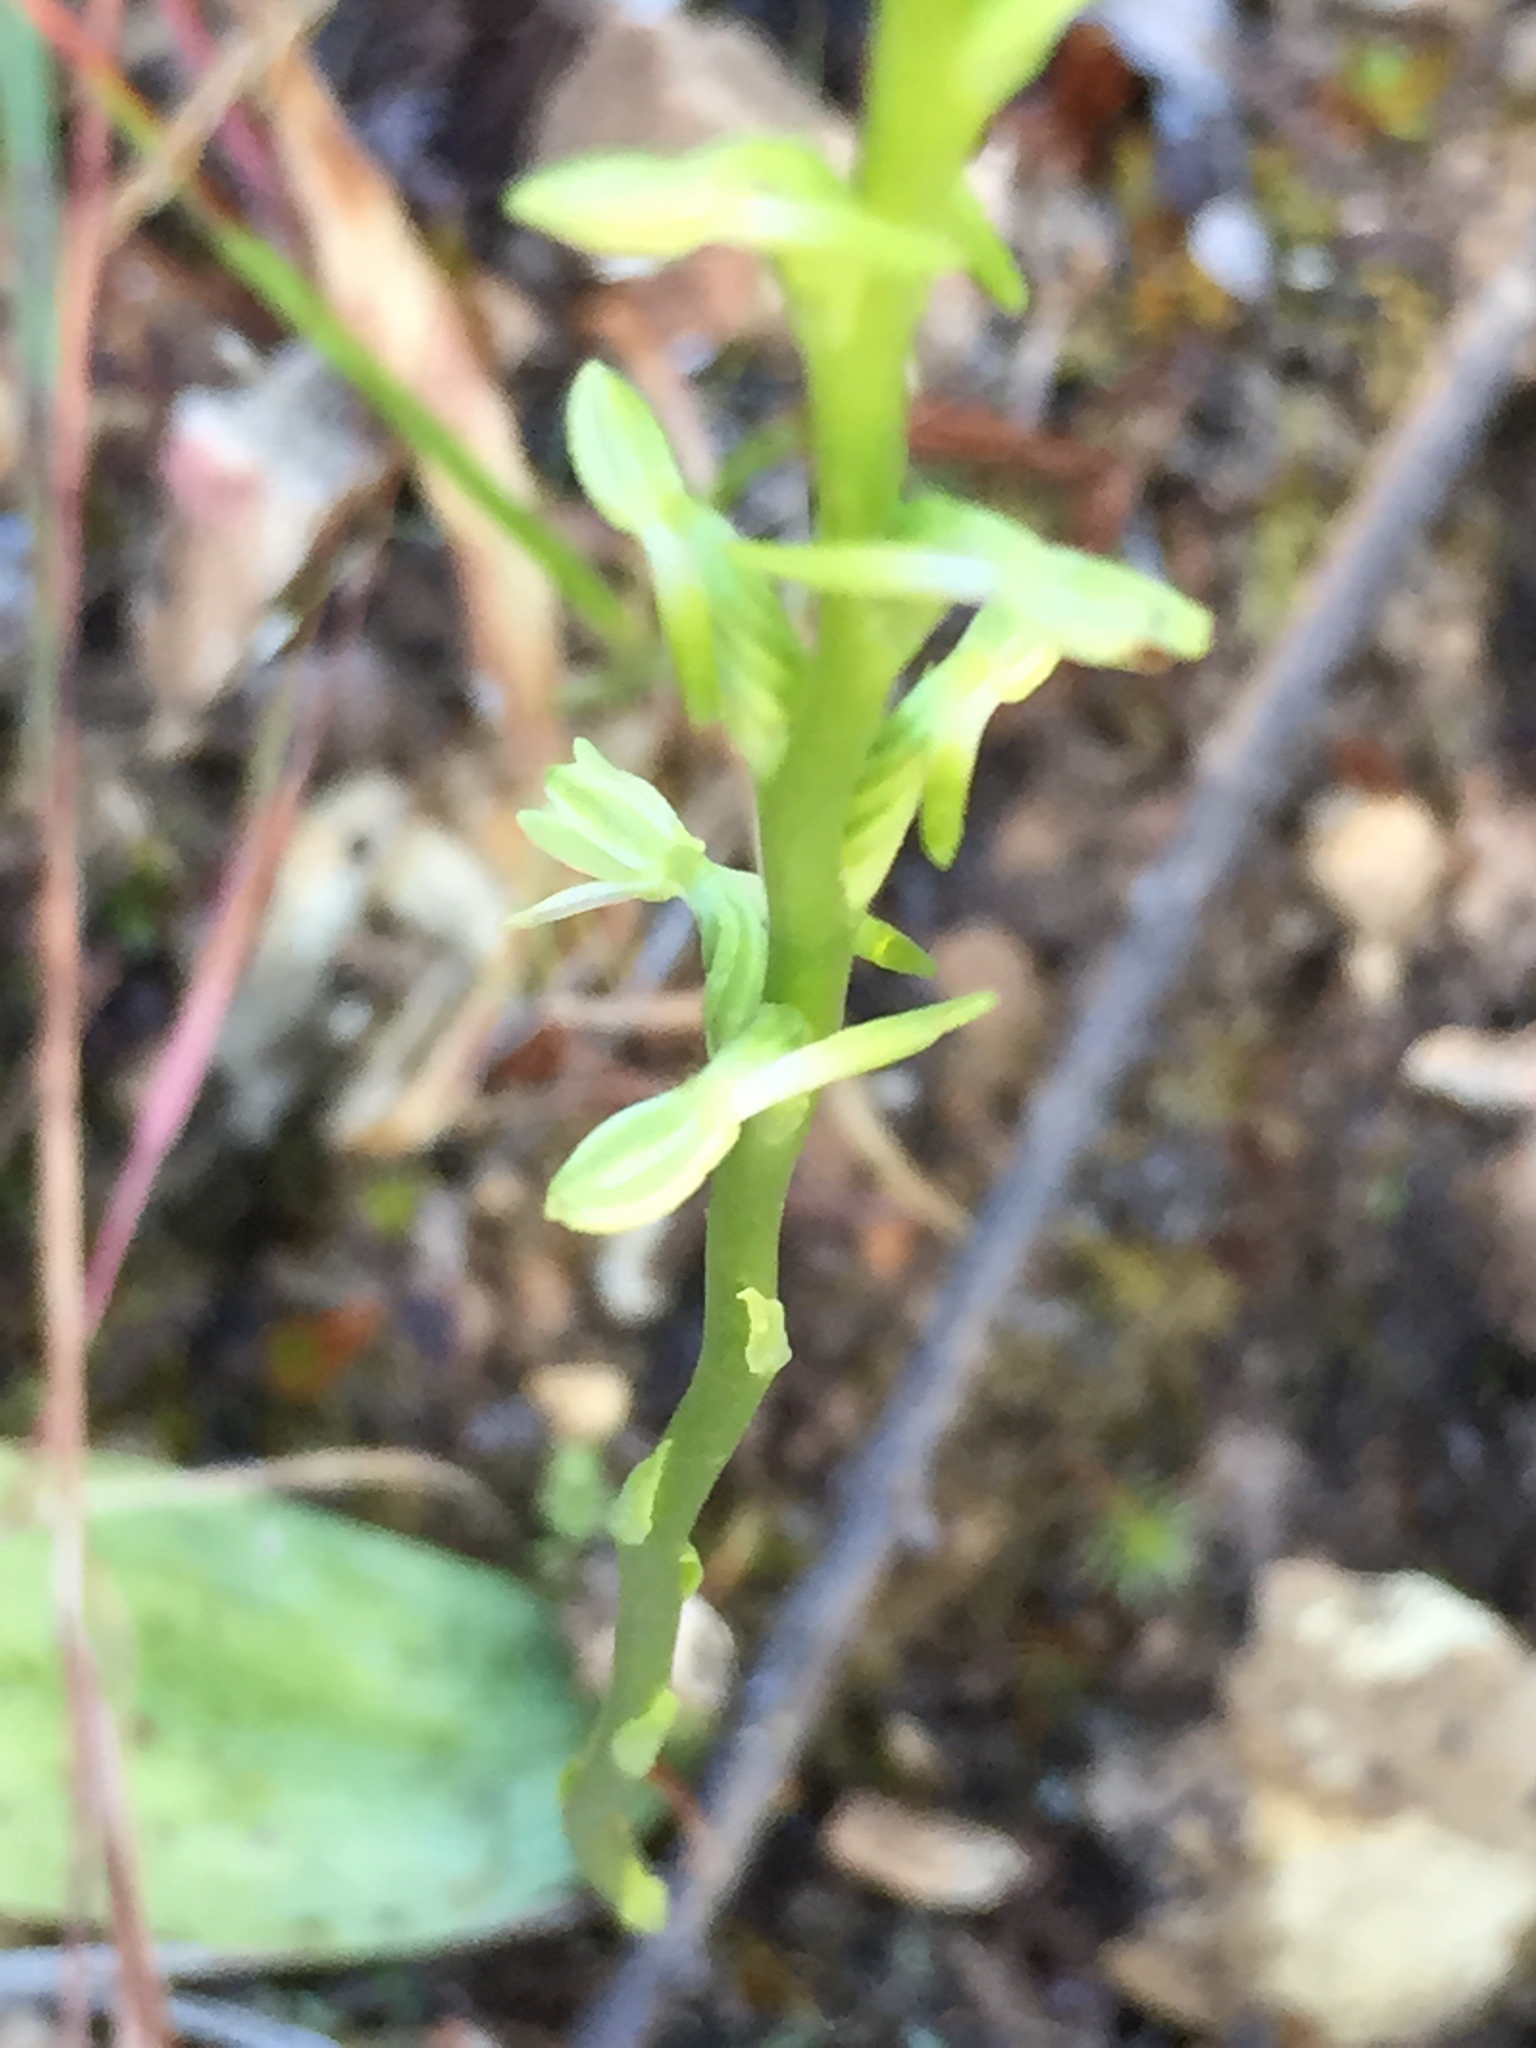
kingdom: Plantae
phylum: Tracheophyta
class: Liliopsida
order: Asparagales
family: Orchidaceae
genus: Platanthera
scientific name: Platanthera transversa
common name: Royal rein orchid
